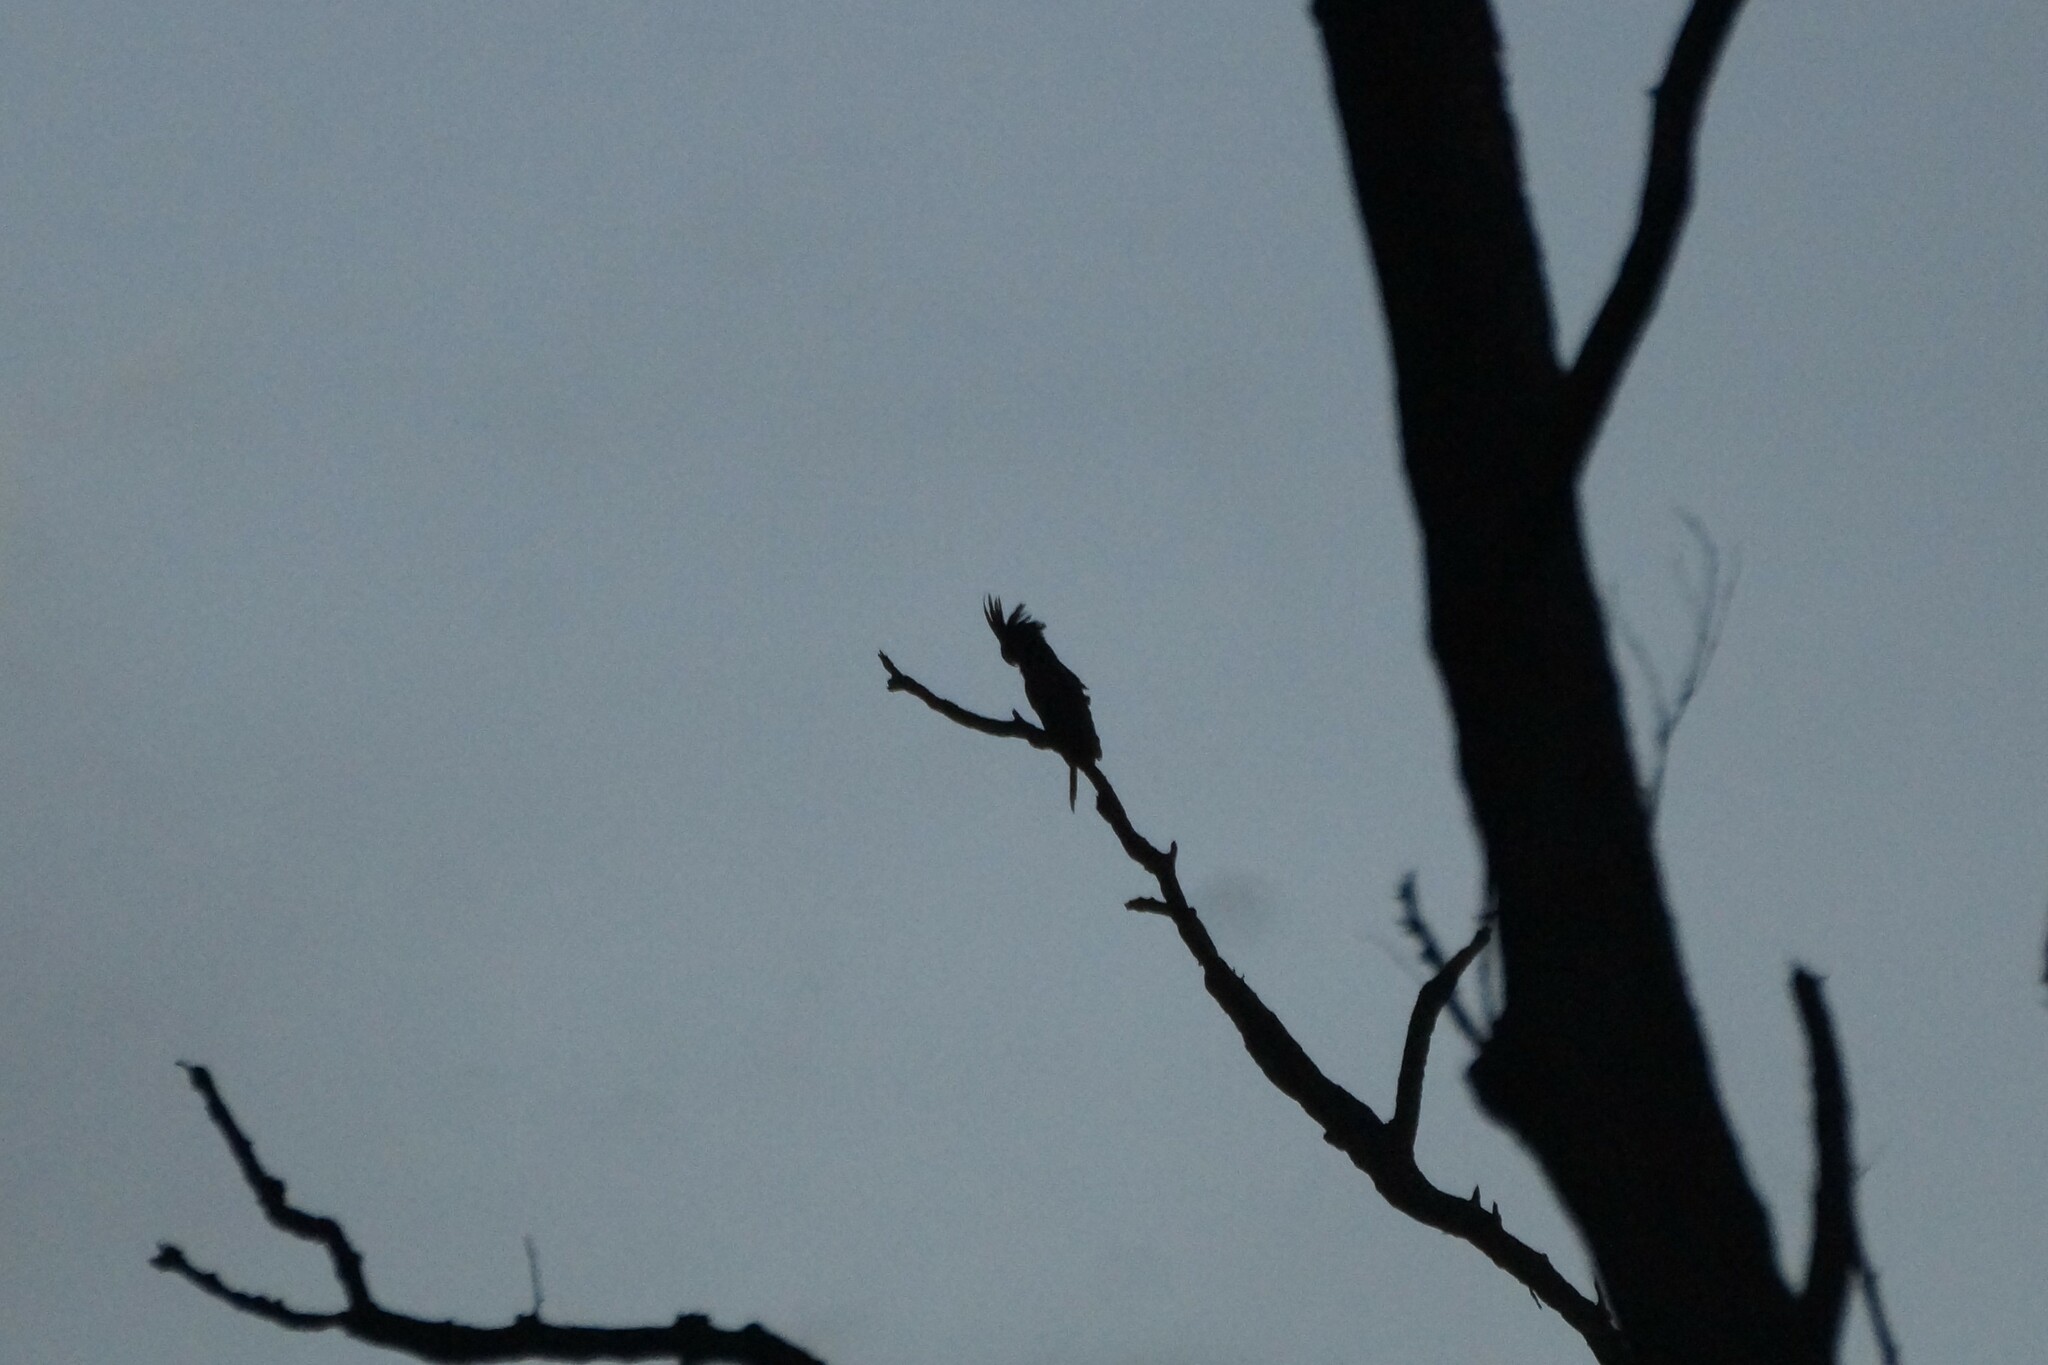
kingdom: Animalia
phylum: Chordata
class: Aves
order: Psittaciformes
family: Psittacidae
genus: Probosciger
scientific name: Probosciger aterrimus
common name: Palm cockatoo
